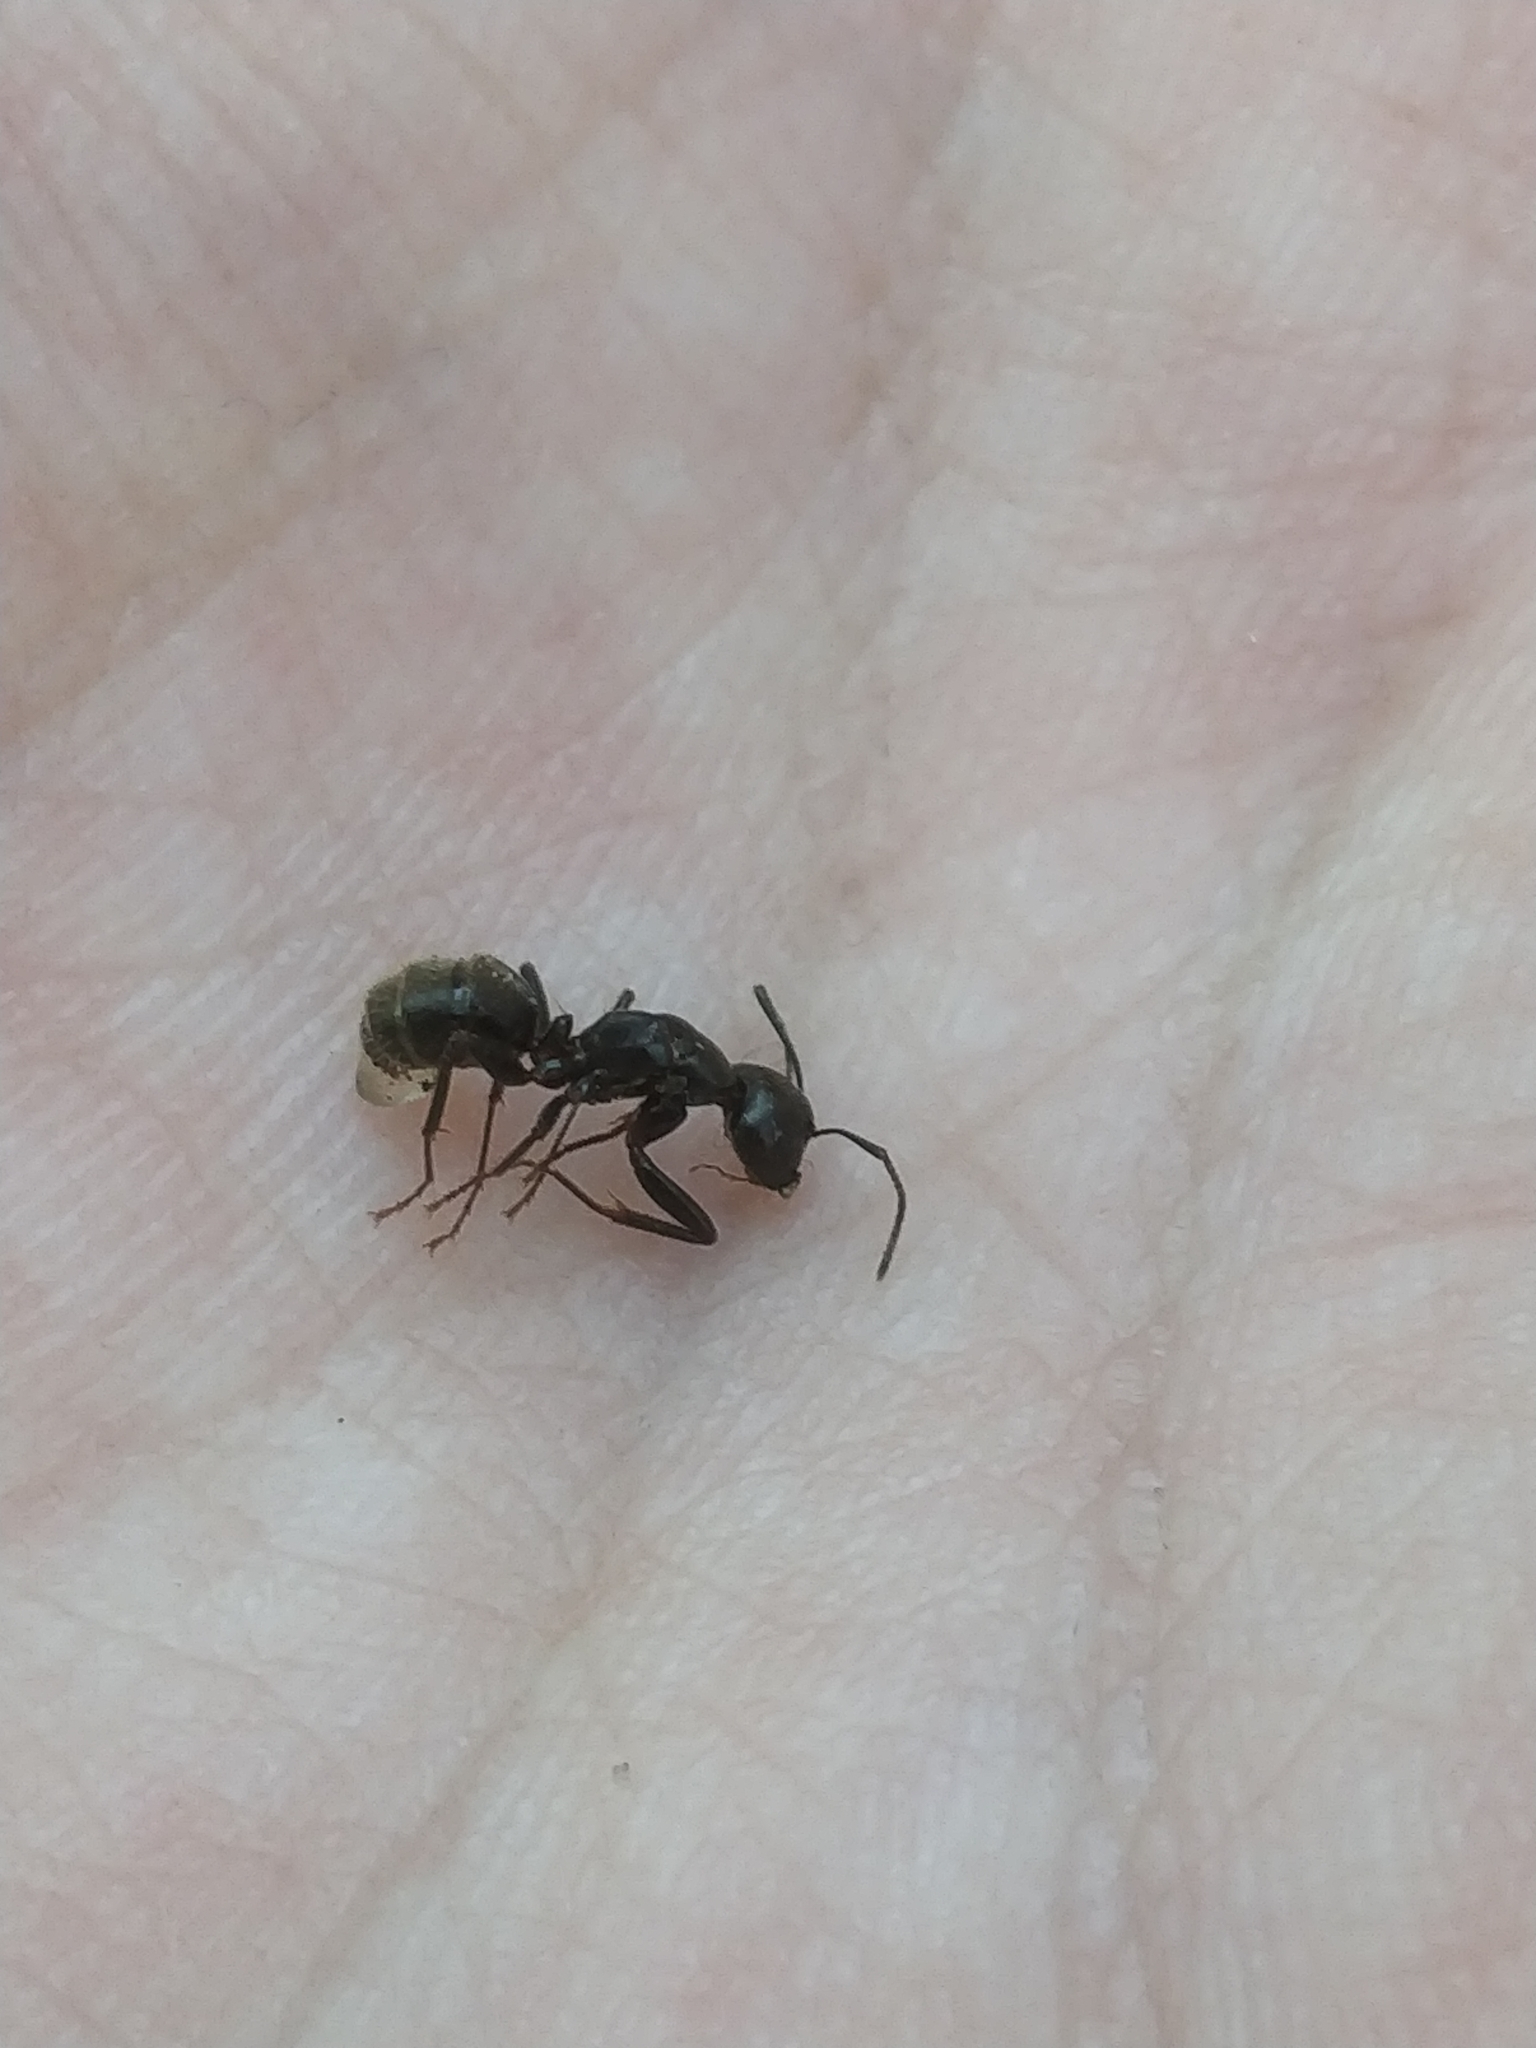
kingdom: Animalia
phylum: Arthropoda
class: Insecta
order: Hymenoptera
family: Formicidae
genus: Camponotus
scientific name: Camponotus pennsylvanicus
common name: Black carpenter ant
